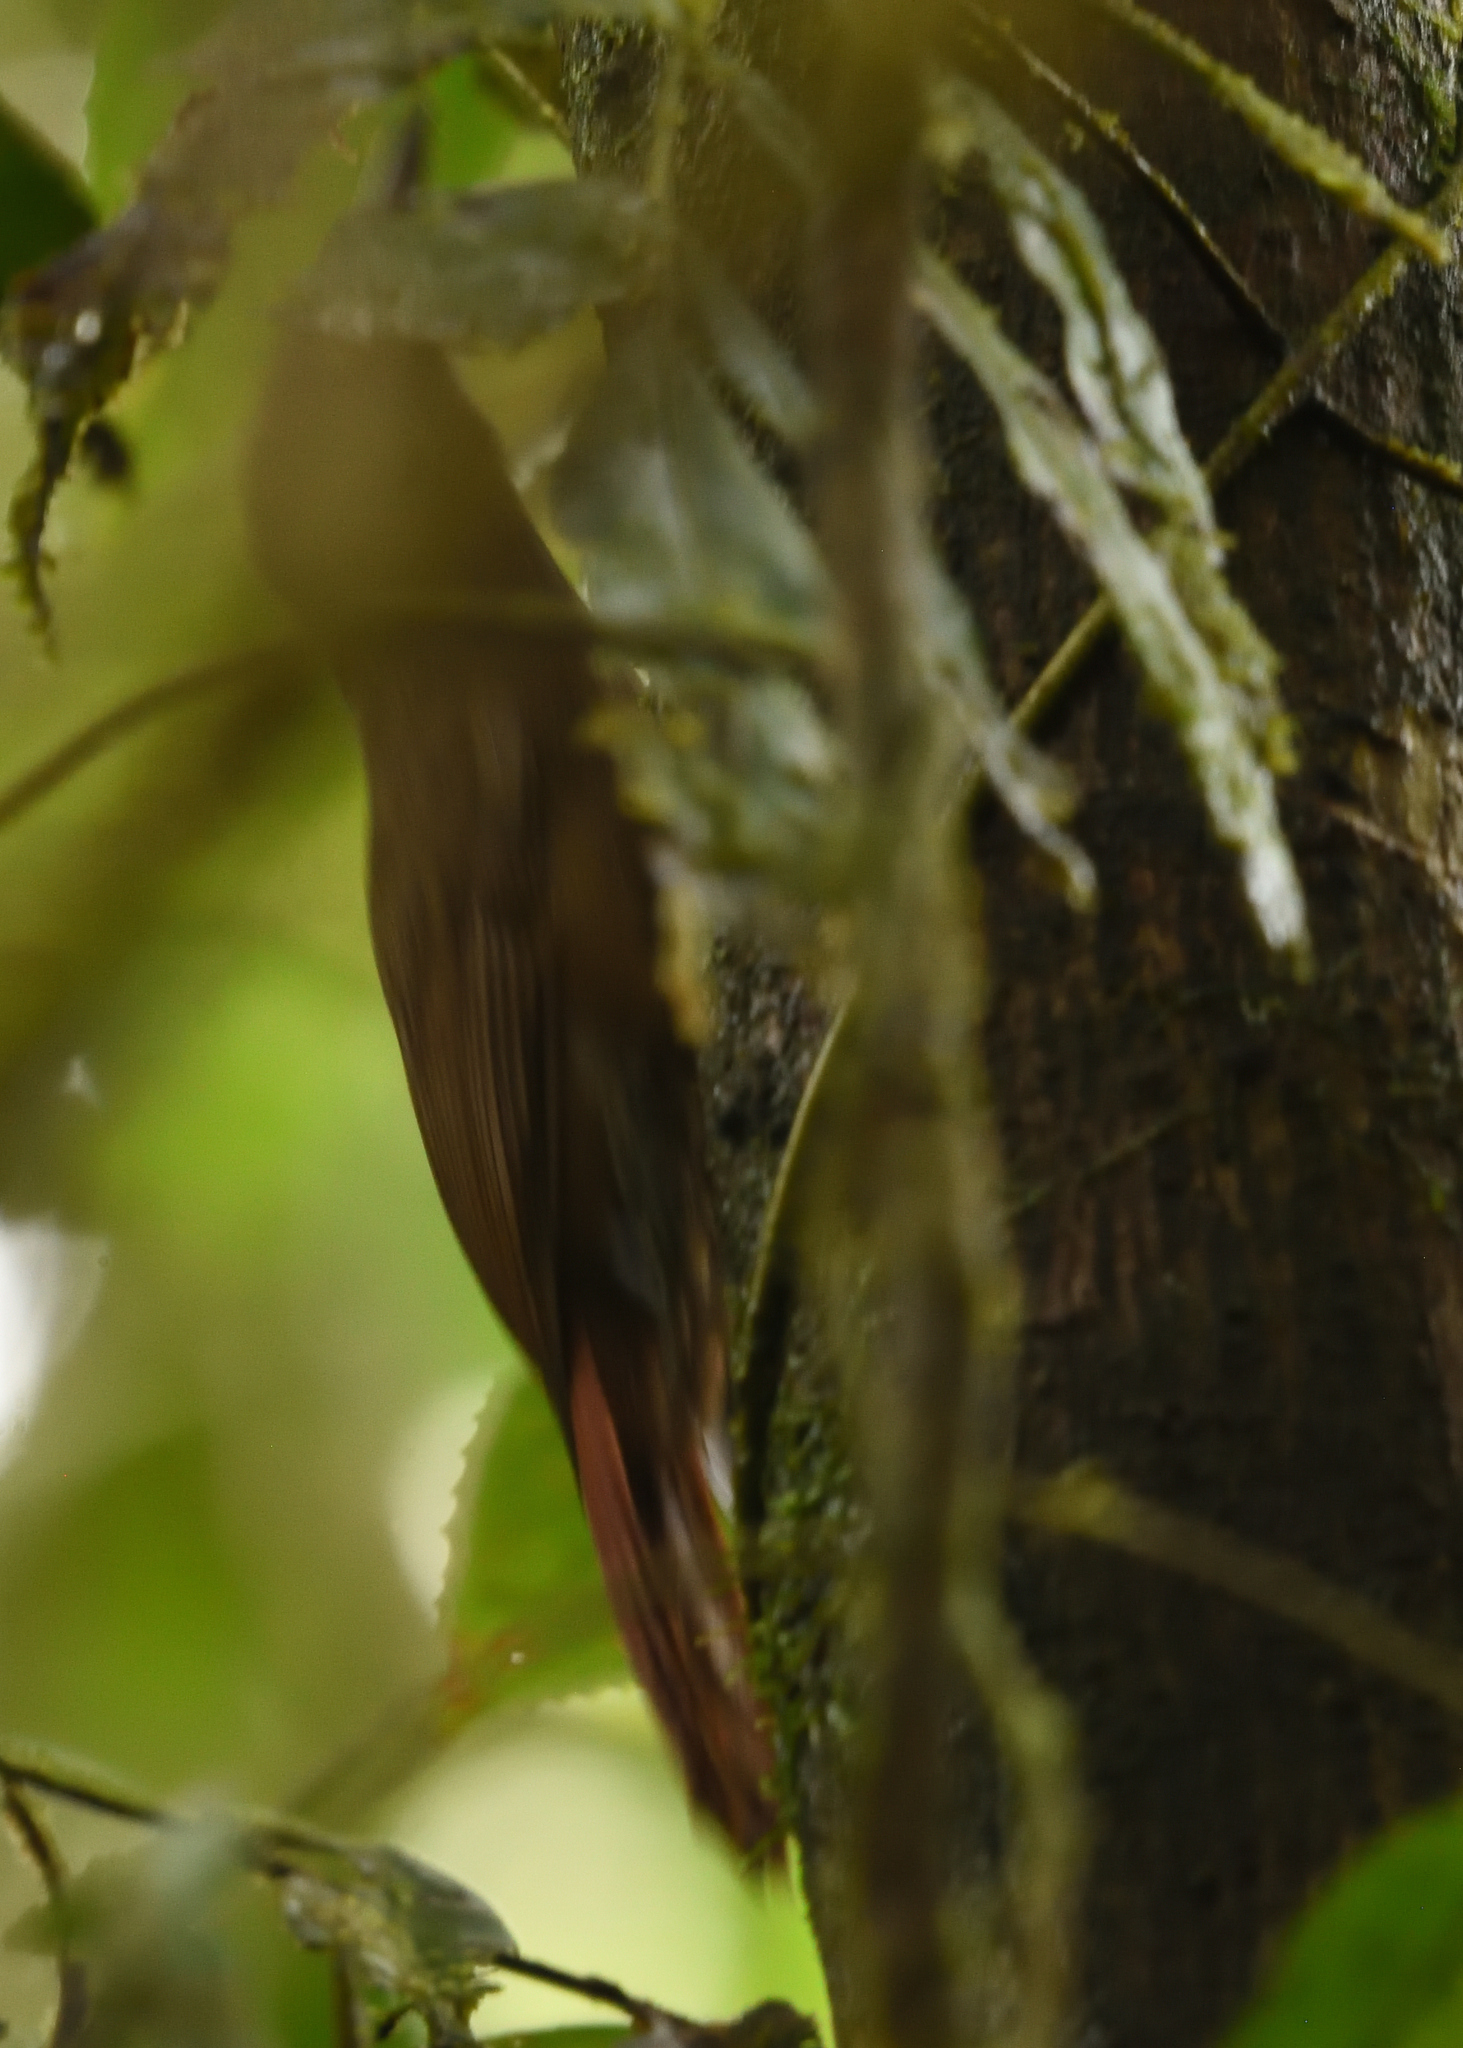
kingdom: Animalia
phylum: Chordata
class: Aves
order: Passeriformes
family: Furnariidae
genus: Dendrocincla
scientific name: Dendrocincla fuliginosa
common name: Plain-brown woodcreeper
